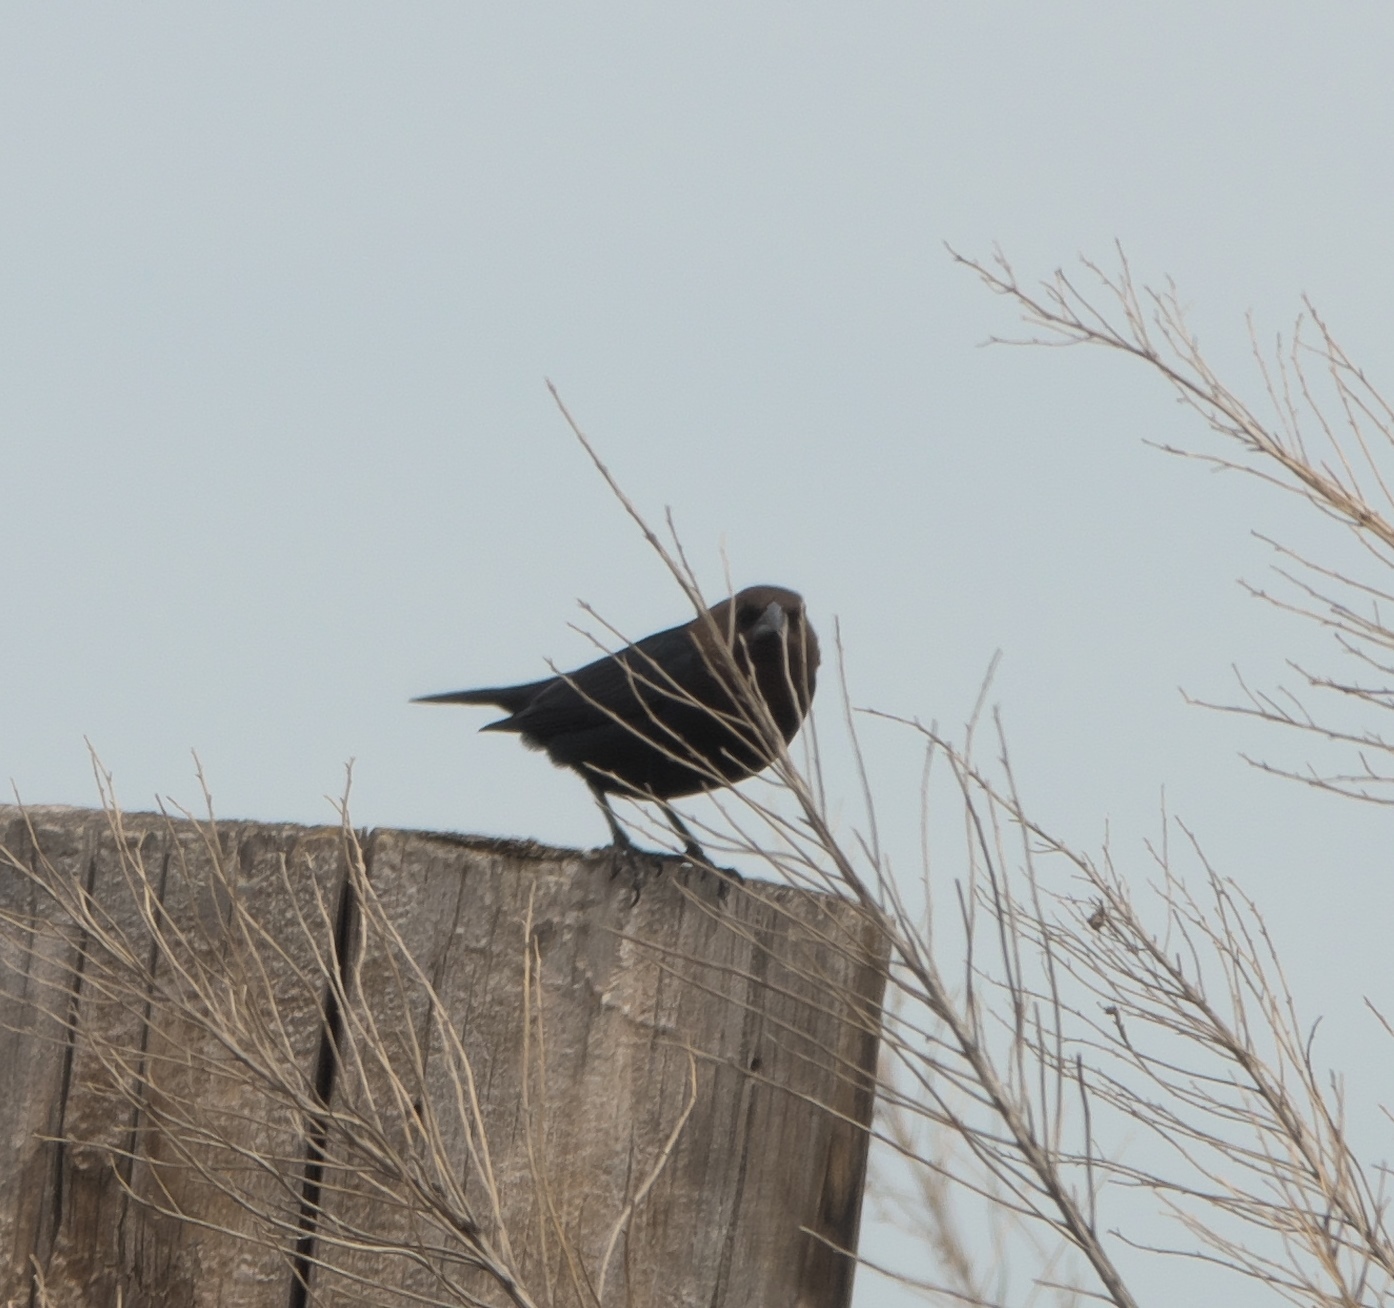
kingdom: Animalia
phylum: Chordata
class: Aves
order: Passeriformes
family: Icteridae
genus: Molothrus
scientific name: Molothrus ater
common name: Brown-headed cowbird
